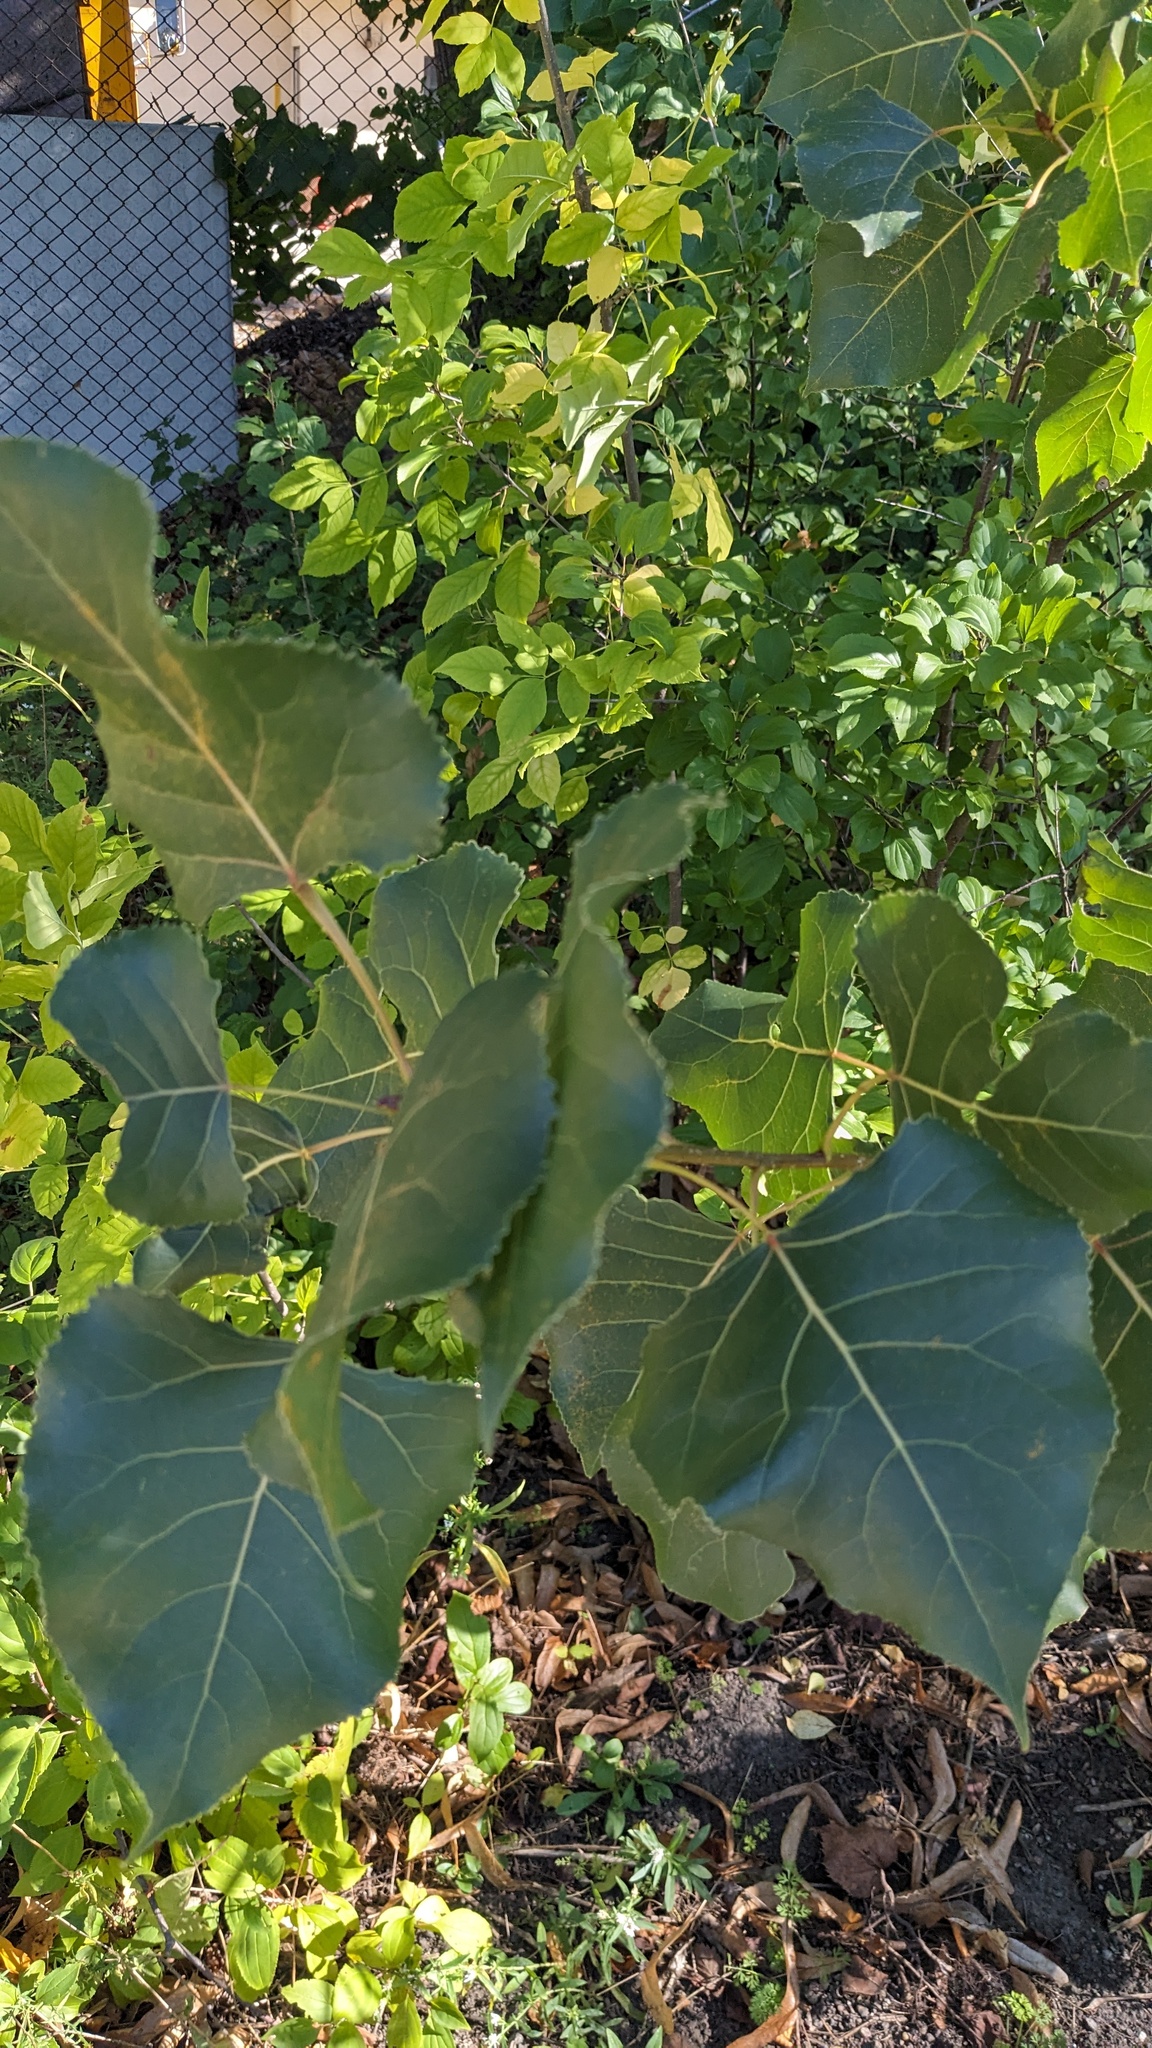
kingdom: Plantae
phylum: Tracheophyta
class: Magnoliopsida
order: Malpighiales
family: Salicaceae
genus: Populus
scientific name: Populus deltoides
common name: Eastern cottonwood
